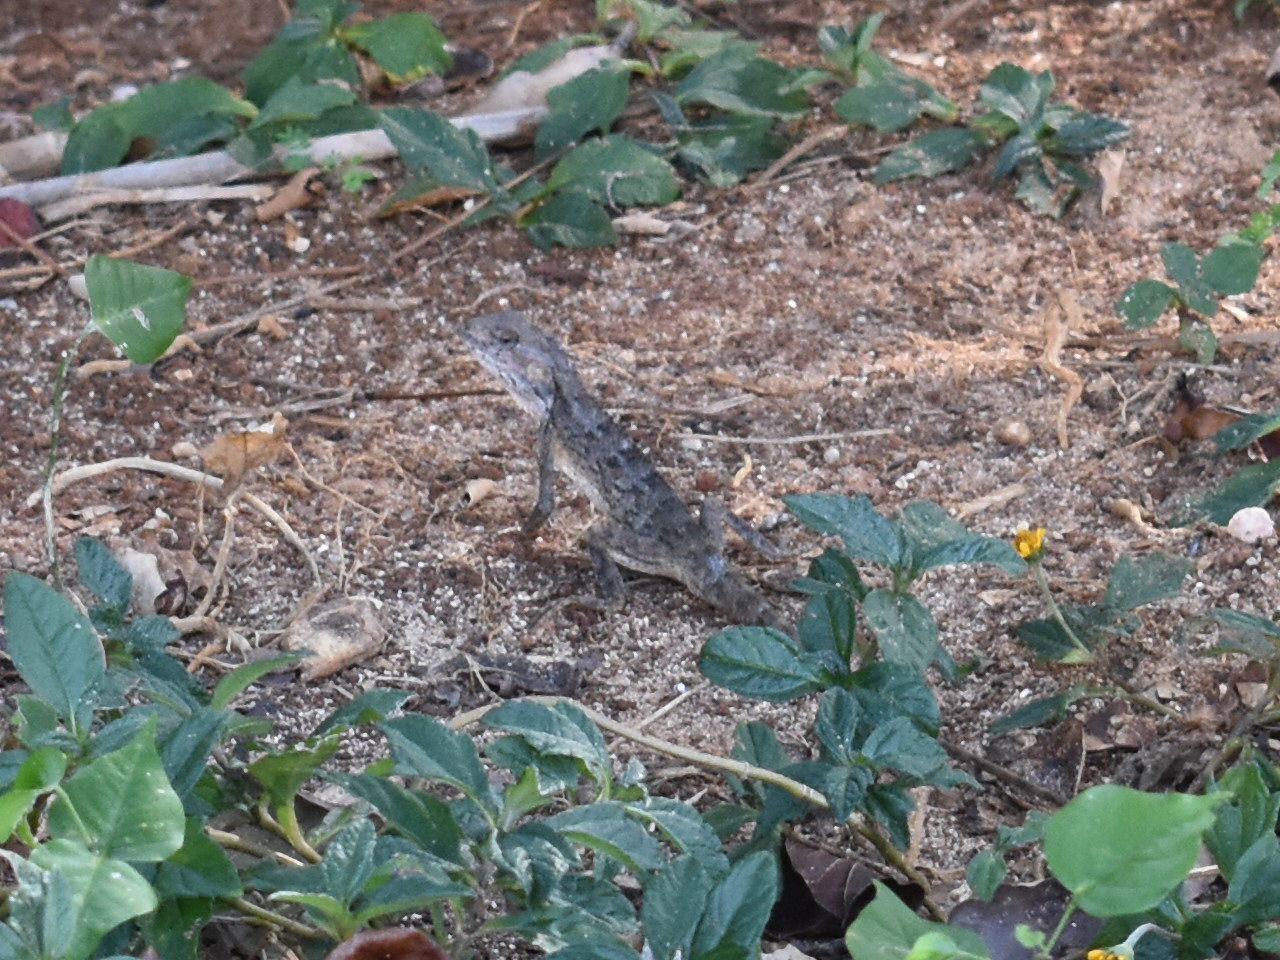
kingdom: Animalia
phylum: Chordata
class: Squamata
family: Agamidae
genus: Calotes
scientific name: Calotes versicolor
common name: Oriental garden lizard
